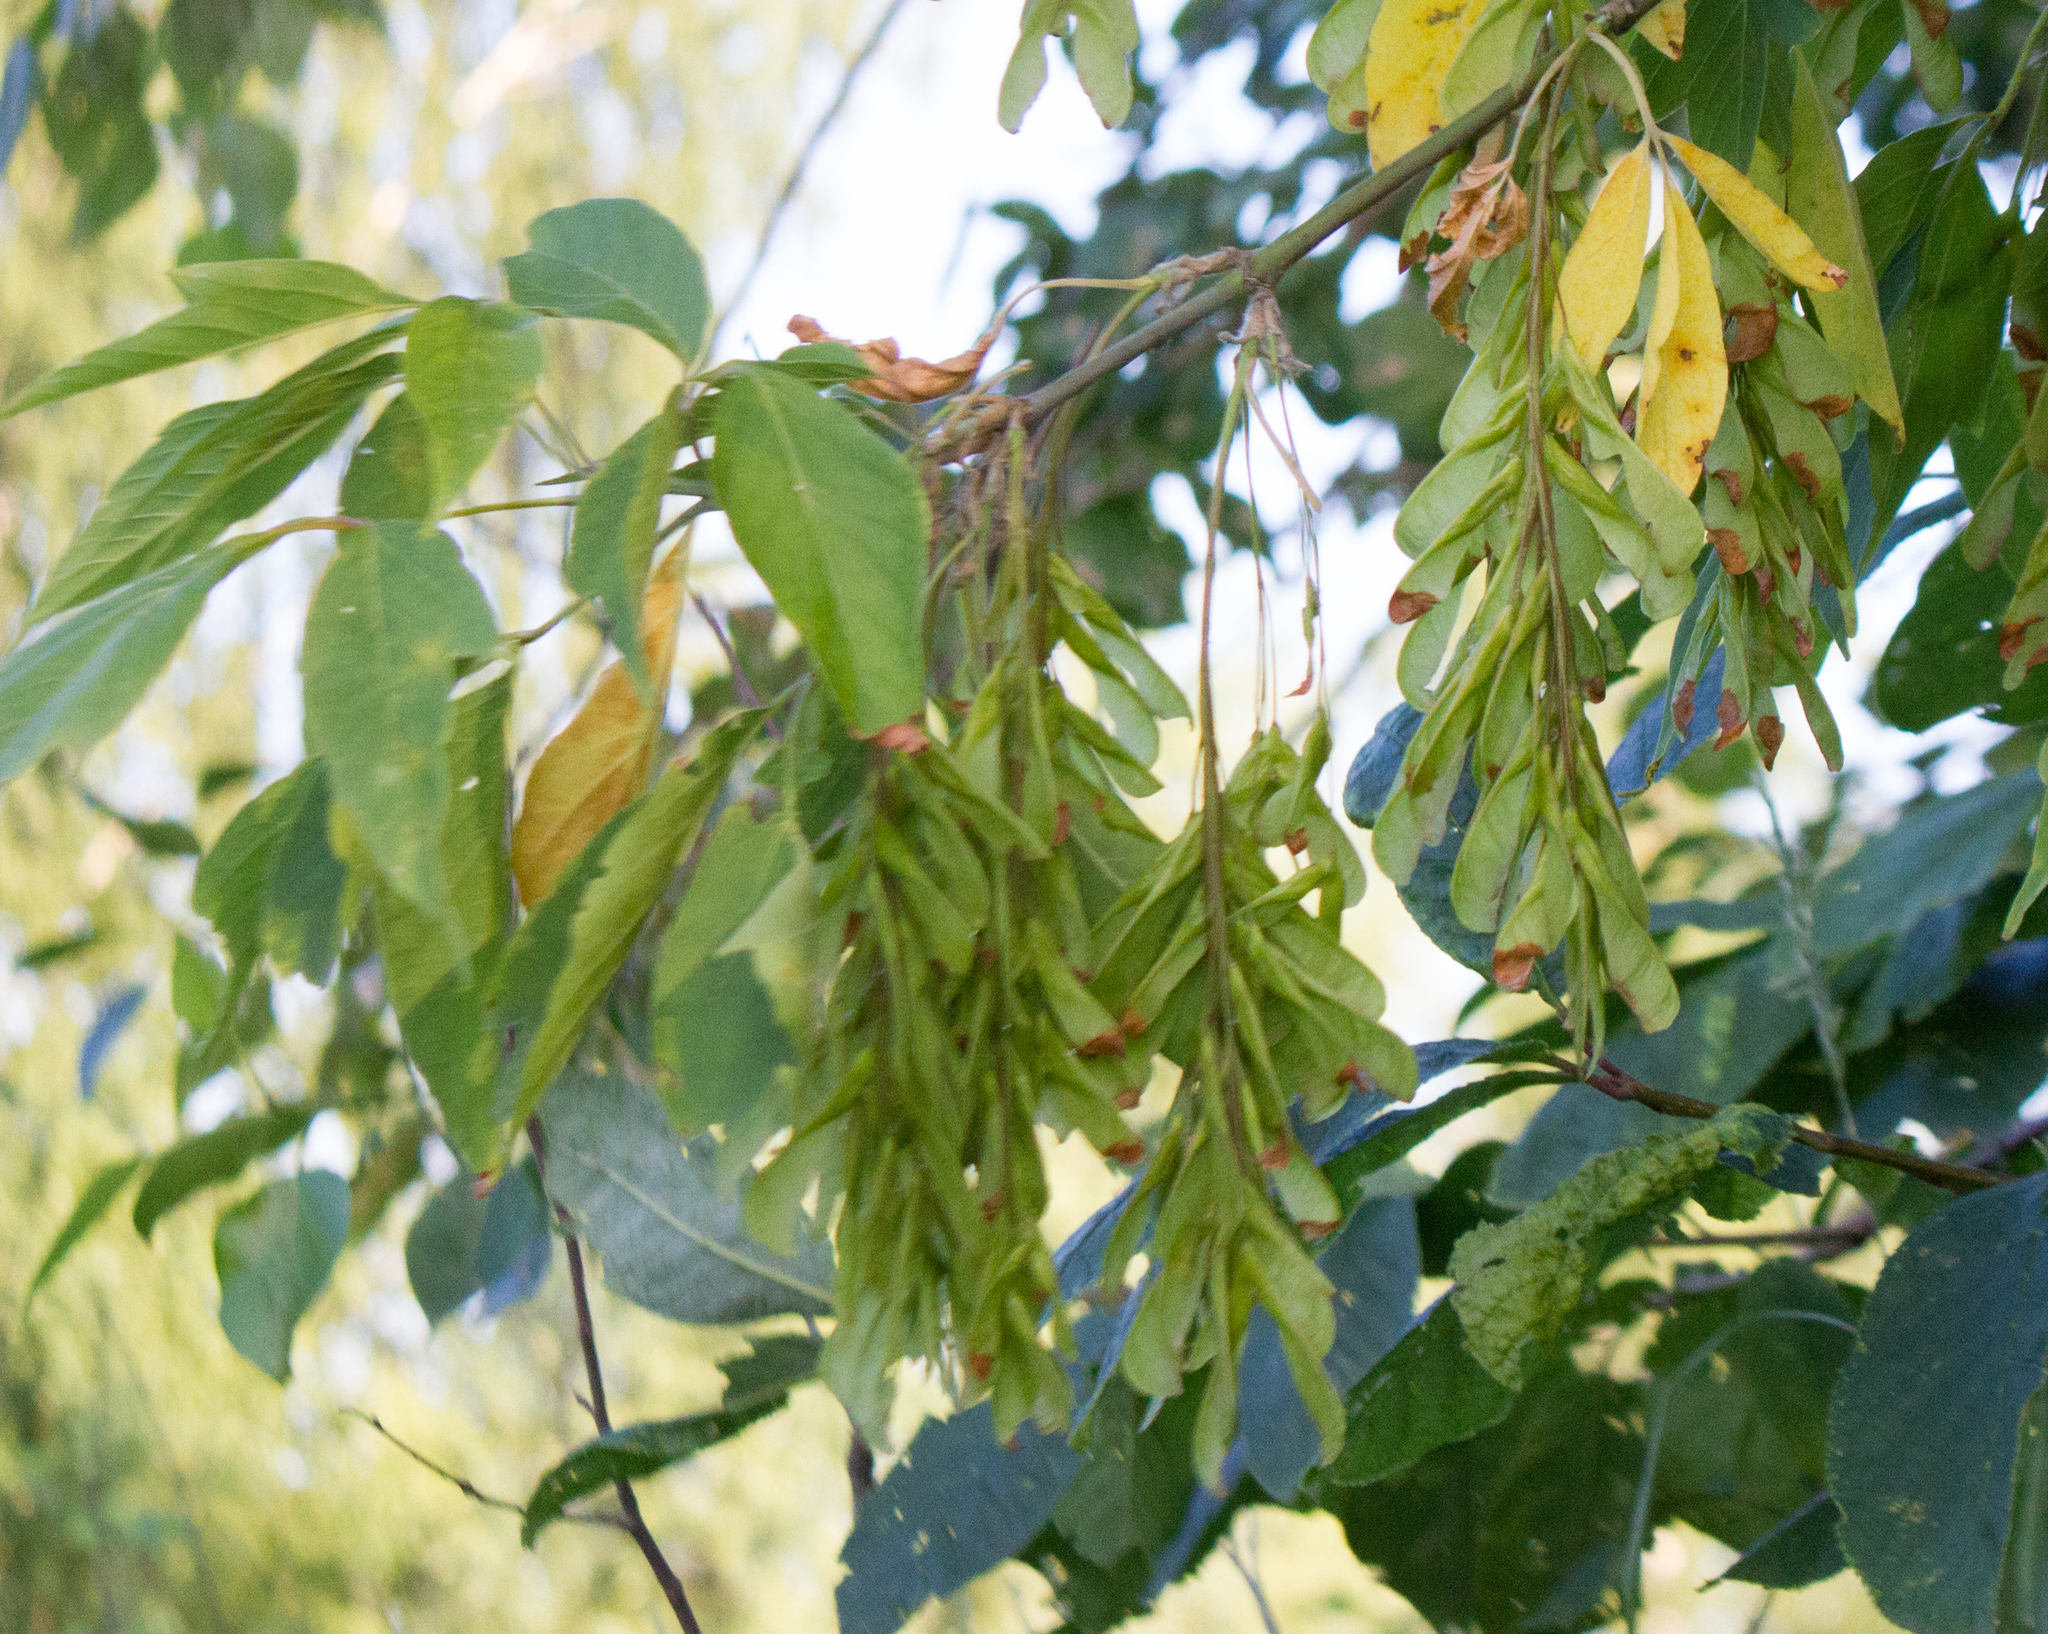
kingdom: Plantae
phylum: Tracheophyta
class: Magnoliopsida
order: Sapindales
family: Sapindaceae
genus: Acer
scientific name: Acer negundo
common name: Ashleaf maple
